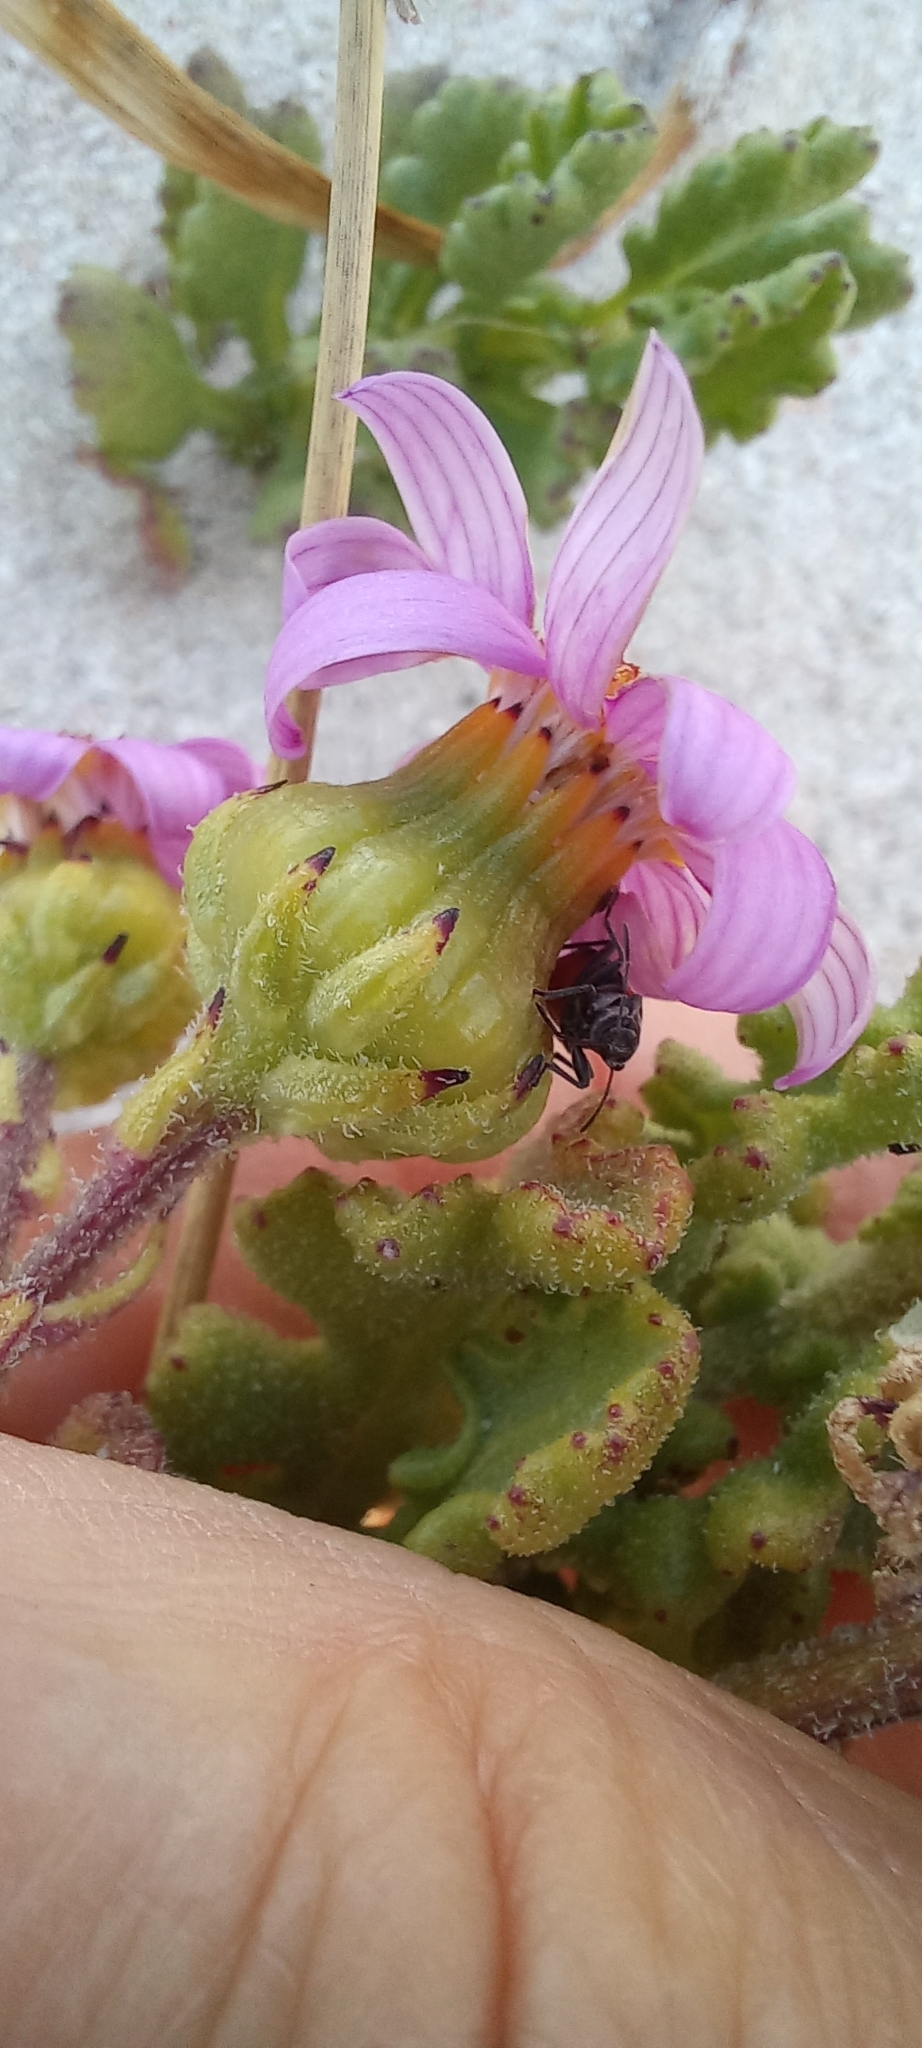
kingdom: Plantae
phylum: Tracheophyta
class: Magnoliopsida
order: Asterales
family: Asteraceae
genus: Senecio
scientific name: Senecio elegans
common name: Purple groundsel
